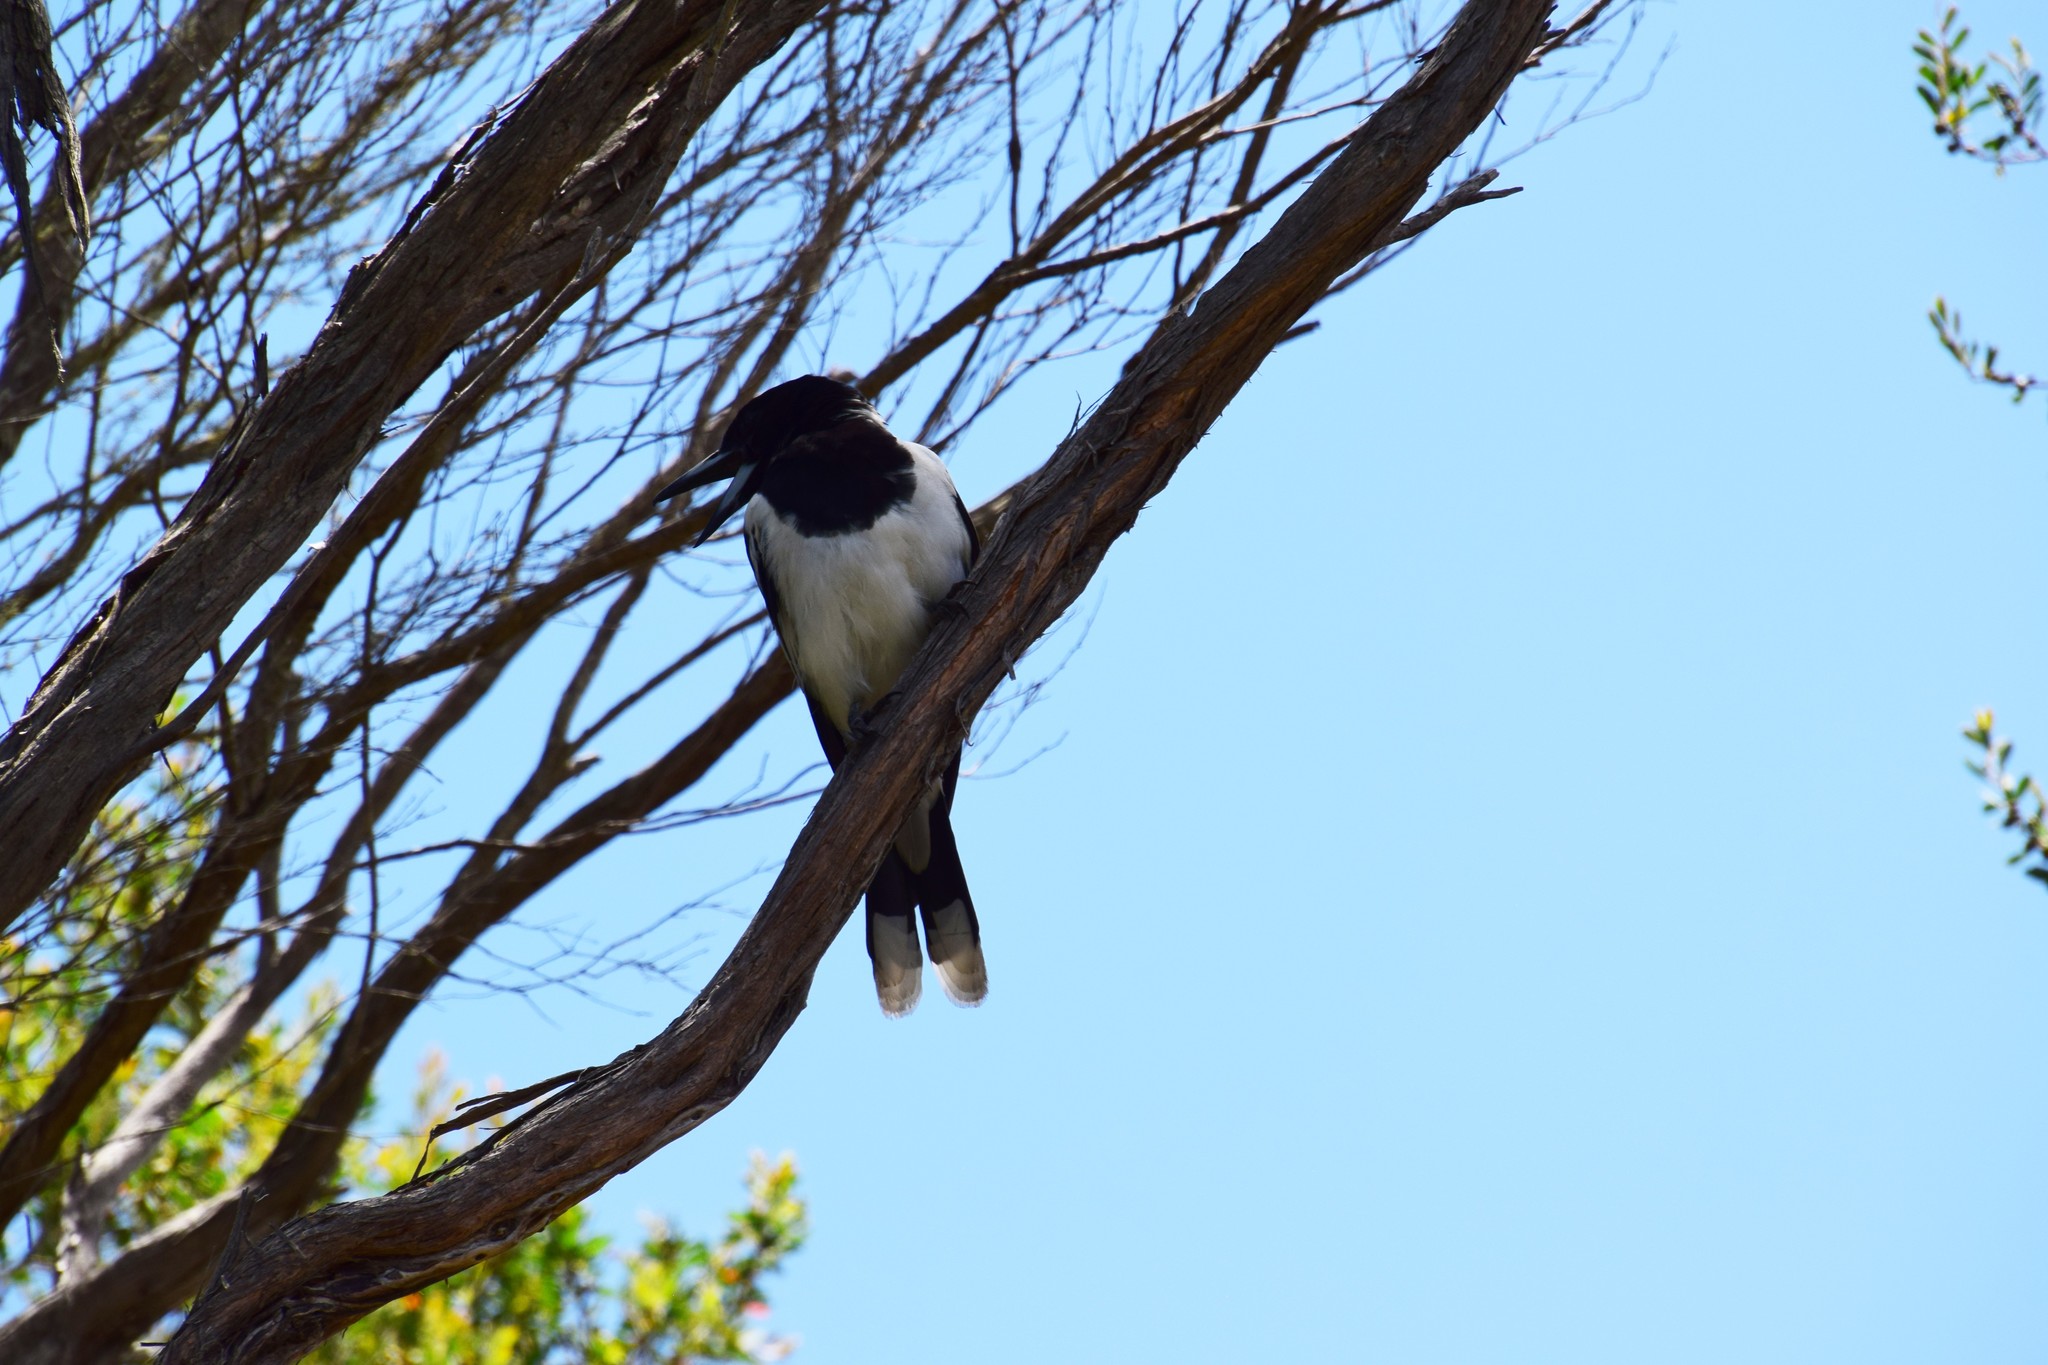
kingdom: Animalia
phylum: Chordata
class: Aves
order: Passeriformes
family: Cracticidae
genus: Cracticus
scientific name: Cracticus nigrogularis
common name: Pied butcherbird
